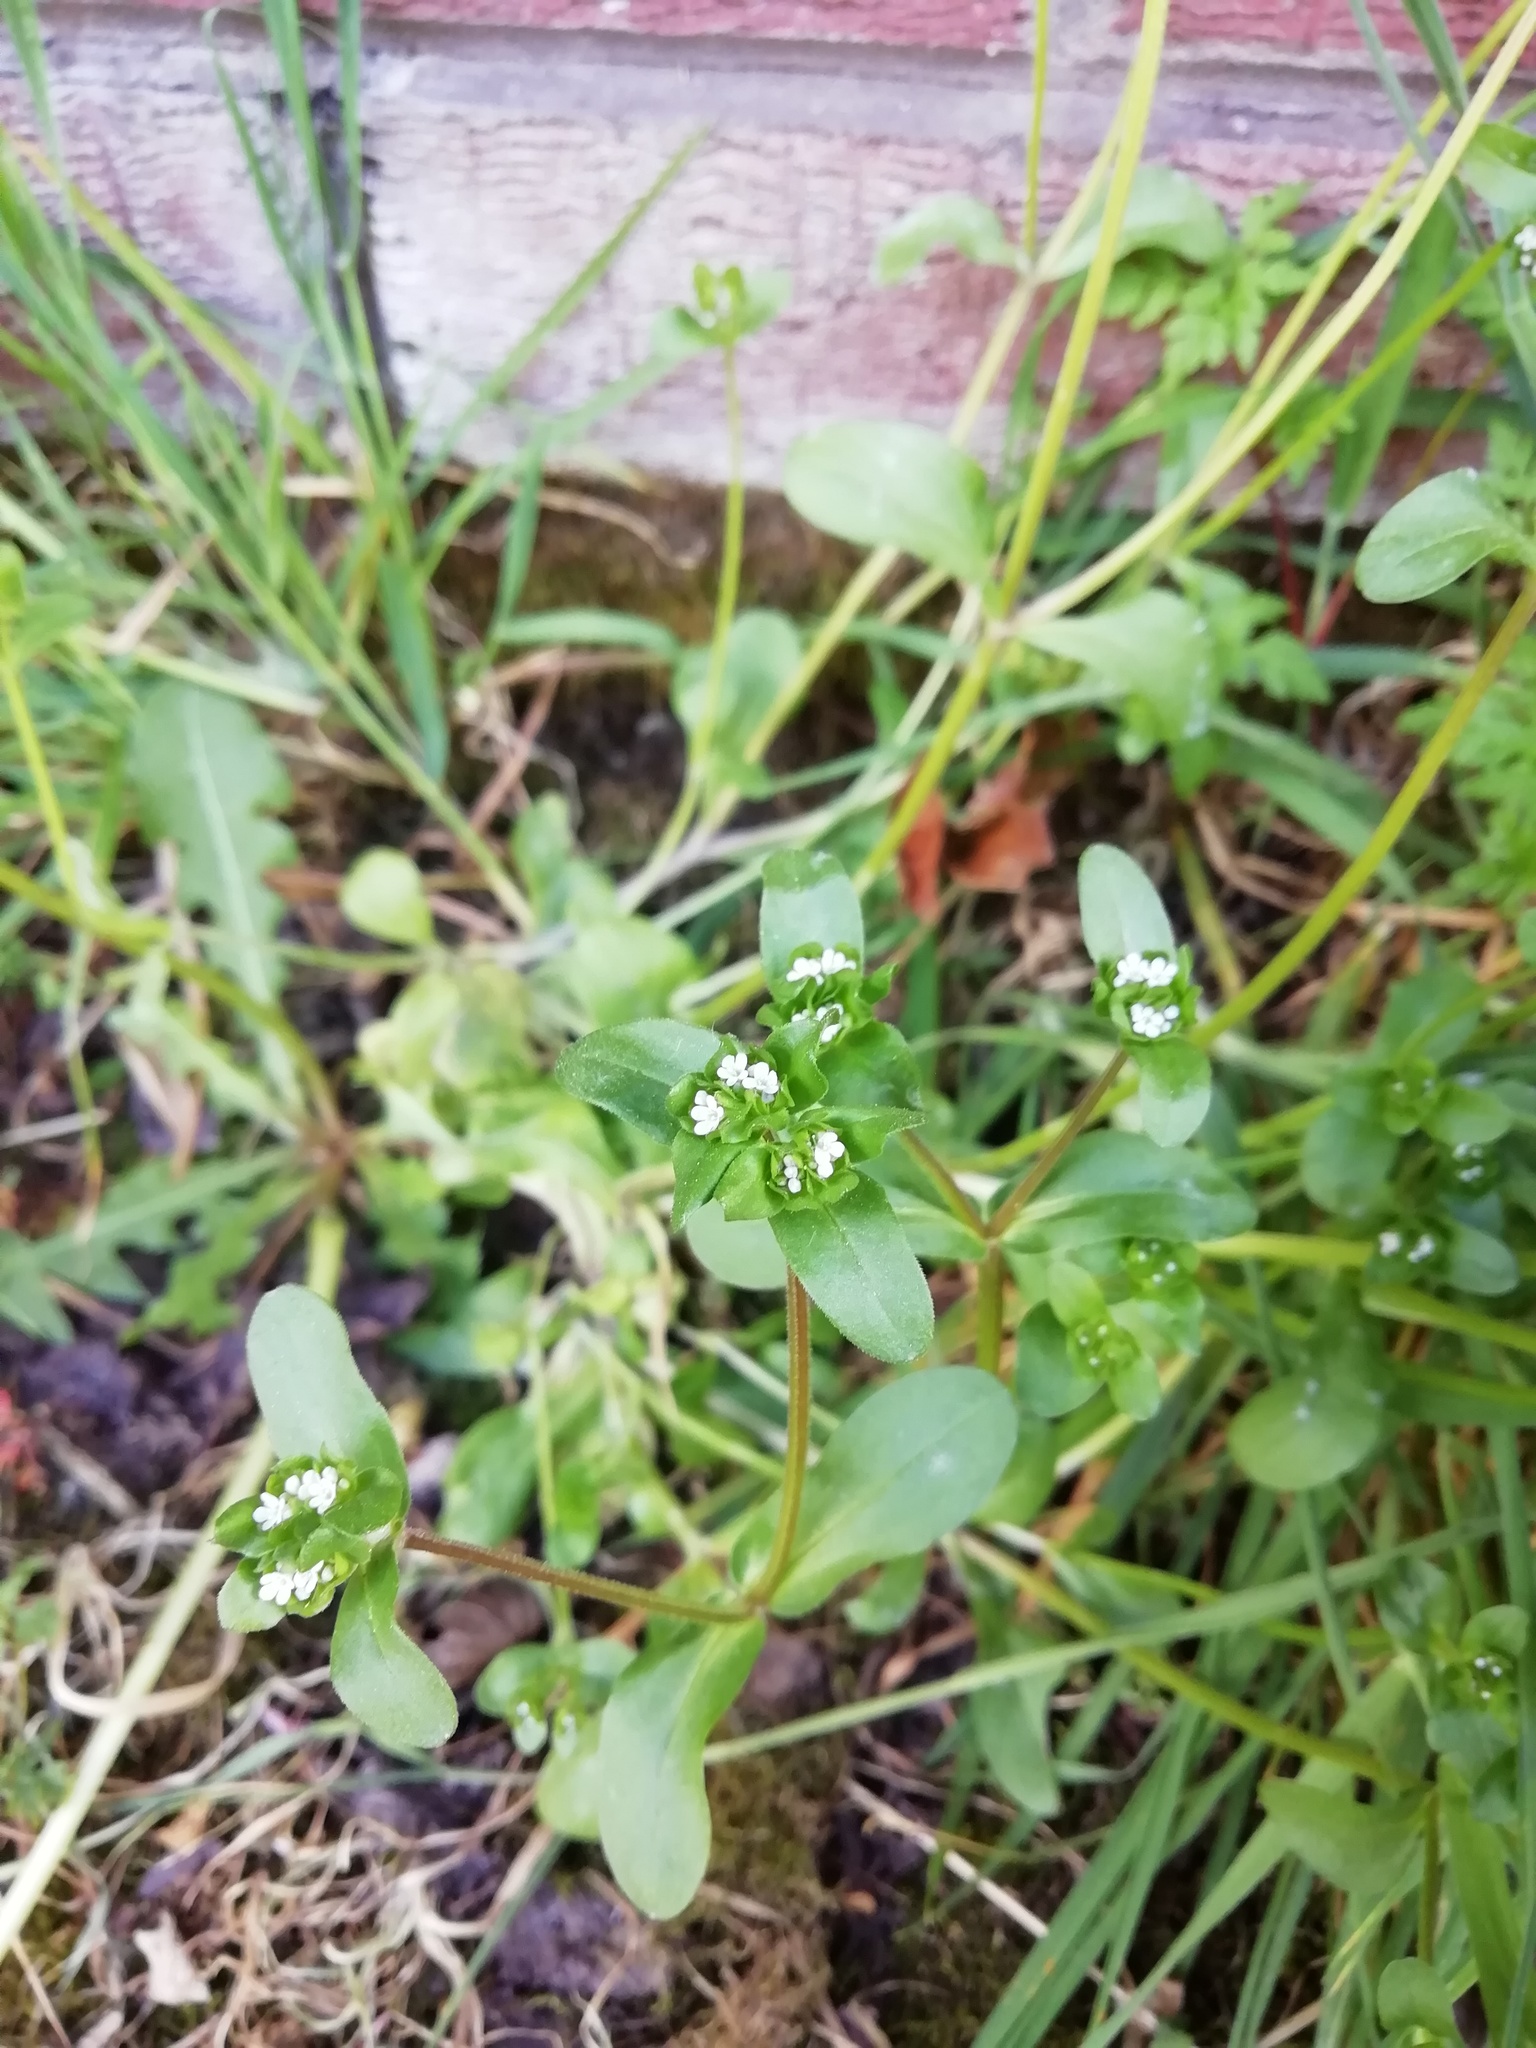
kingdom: Plantae
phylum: Tracheophyta
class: Magnoliopsida
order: Dipsacales
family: Caprifoliaceae
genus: Valerianella
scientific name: Valerianella locusta
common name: Common cornsalad
